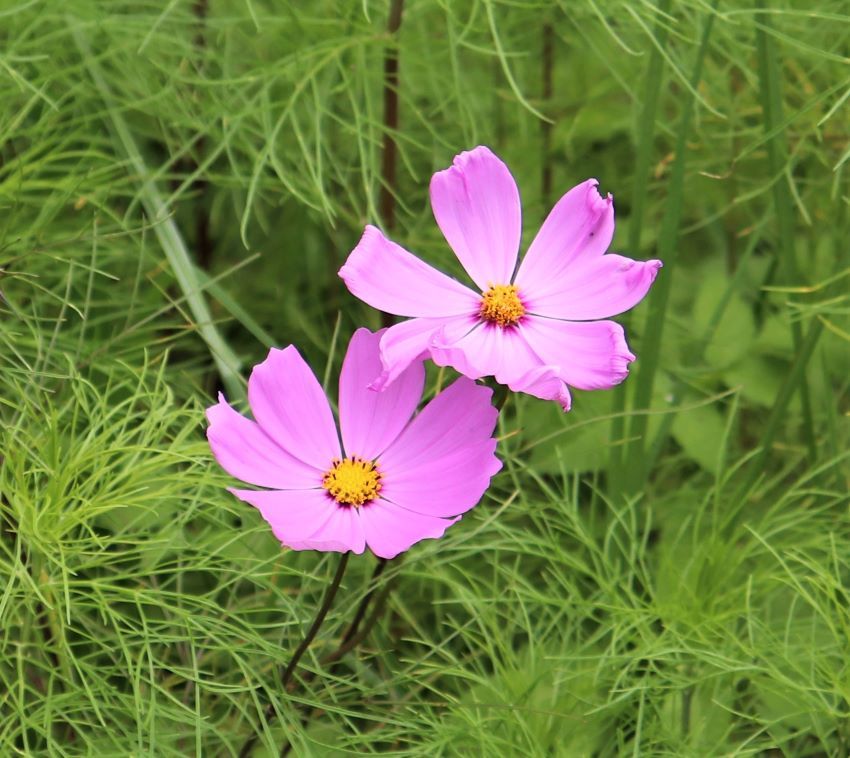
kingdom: Plantae
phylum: Tracheophyta
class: Magnoliopsida
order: Asterales
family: Asteraceae
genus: Cosmos
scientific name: Cosmos bipinnatus
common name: Garden cosmos
